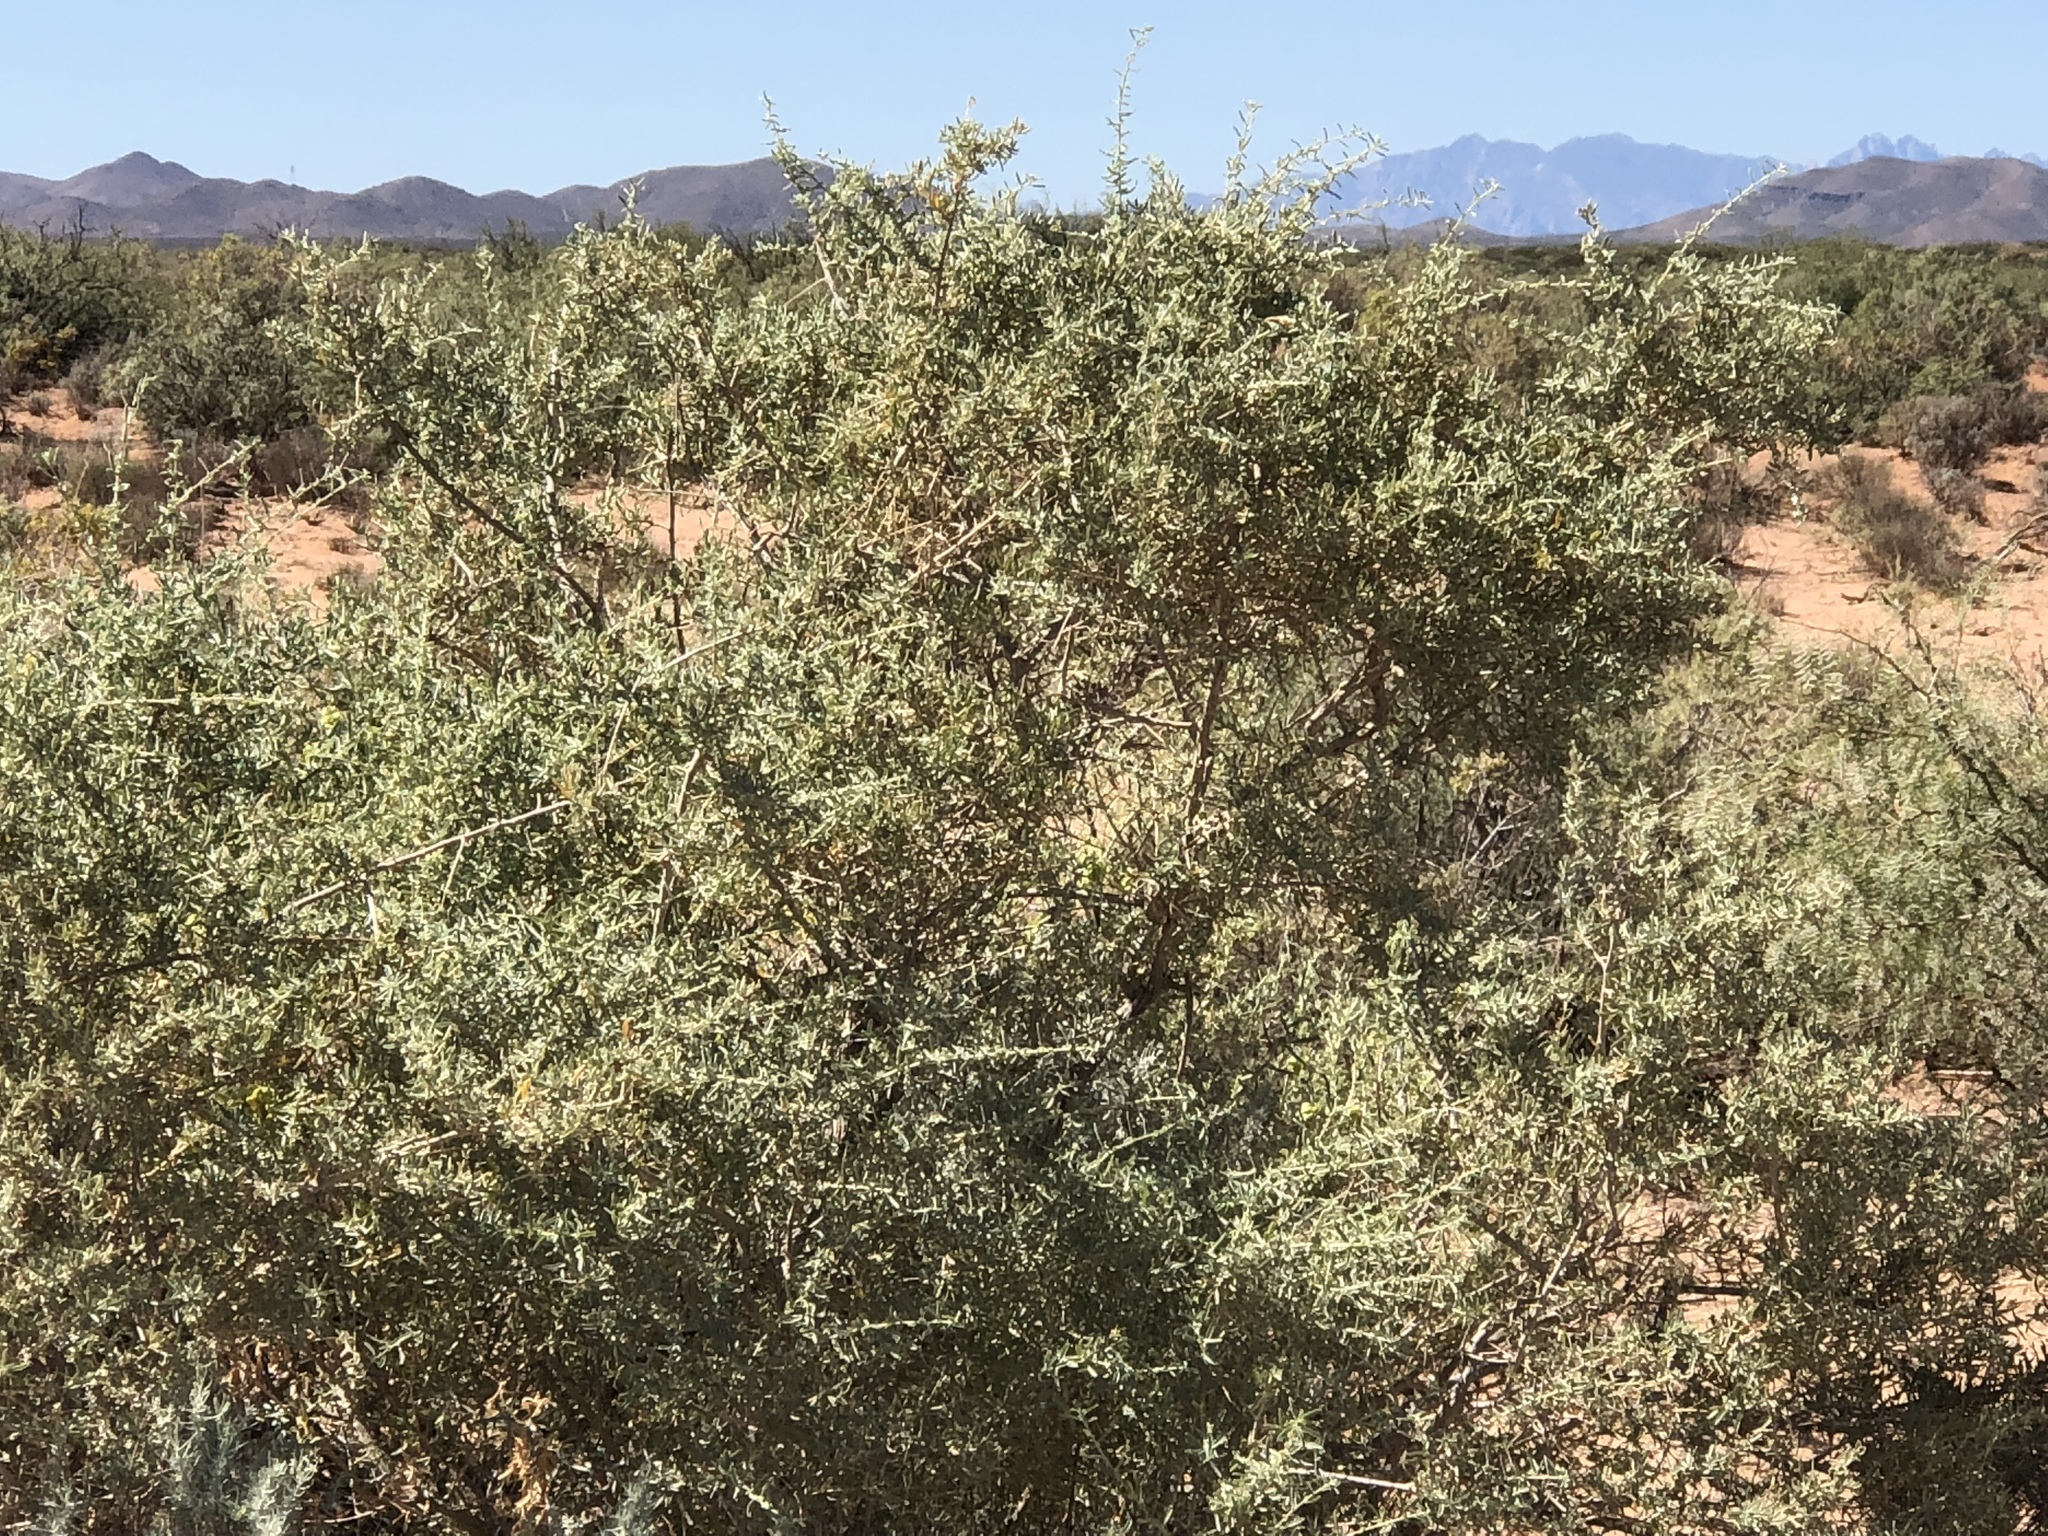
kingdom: Plantae
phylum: Tracheophyta
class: Magnoliopsida
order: Caryophyllales
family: Amaranthaceae
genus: Atriplex
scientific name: Atriplex canescens
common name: Four-wing saltbush
